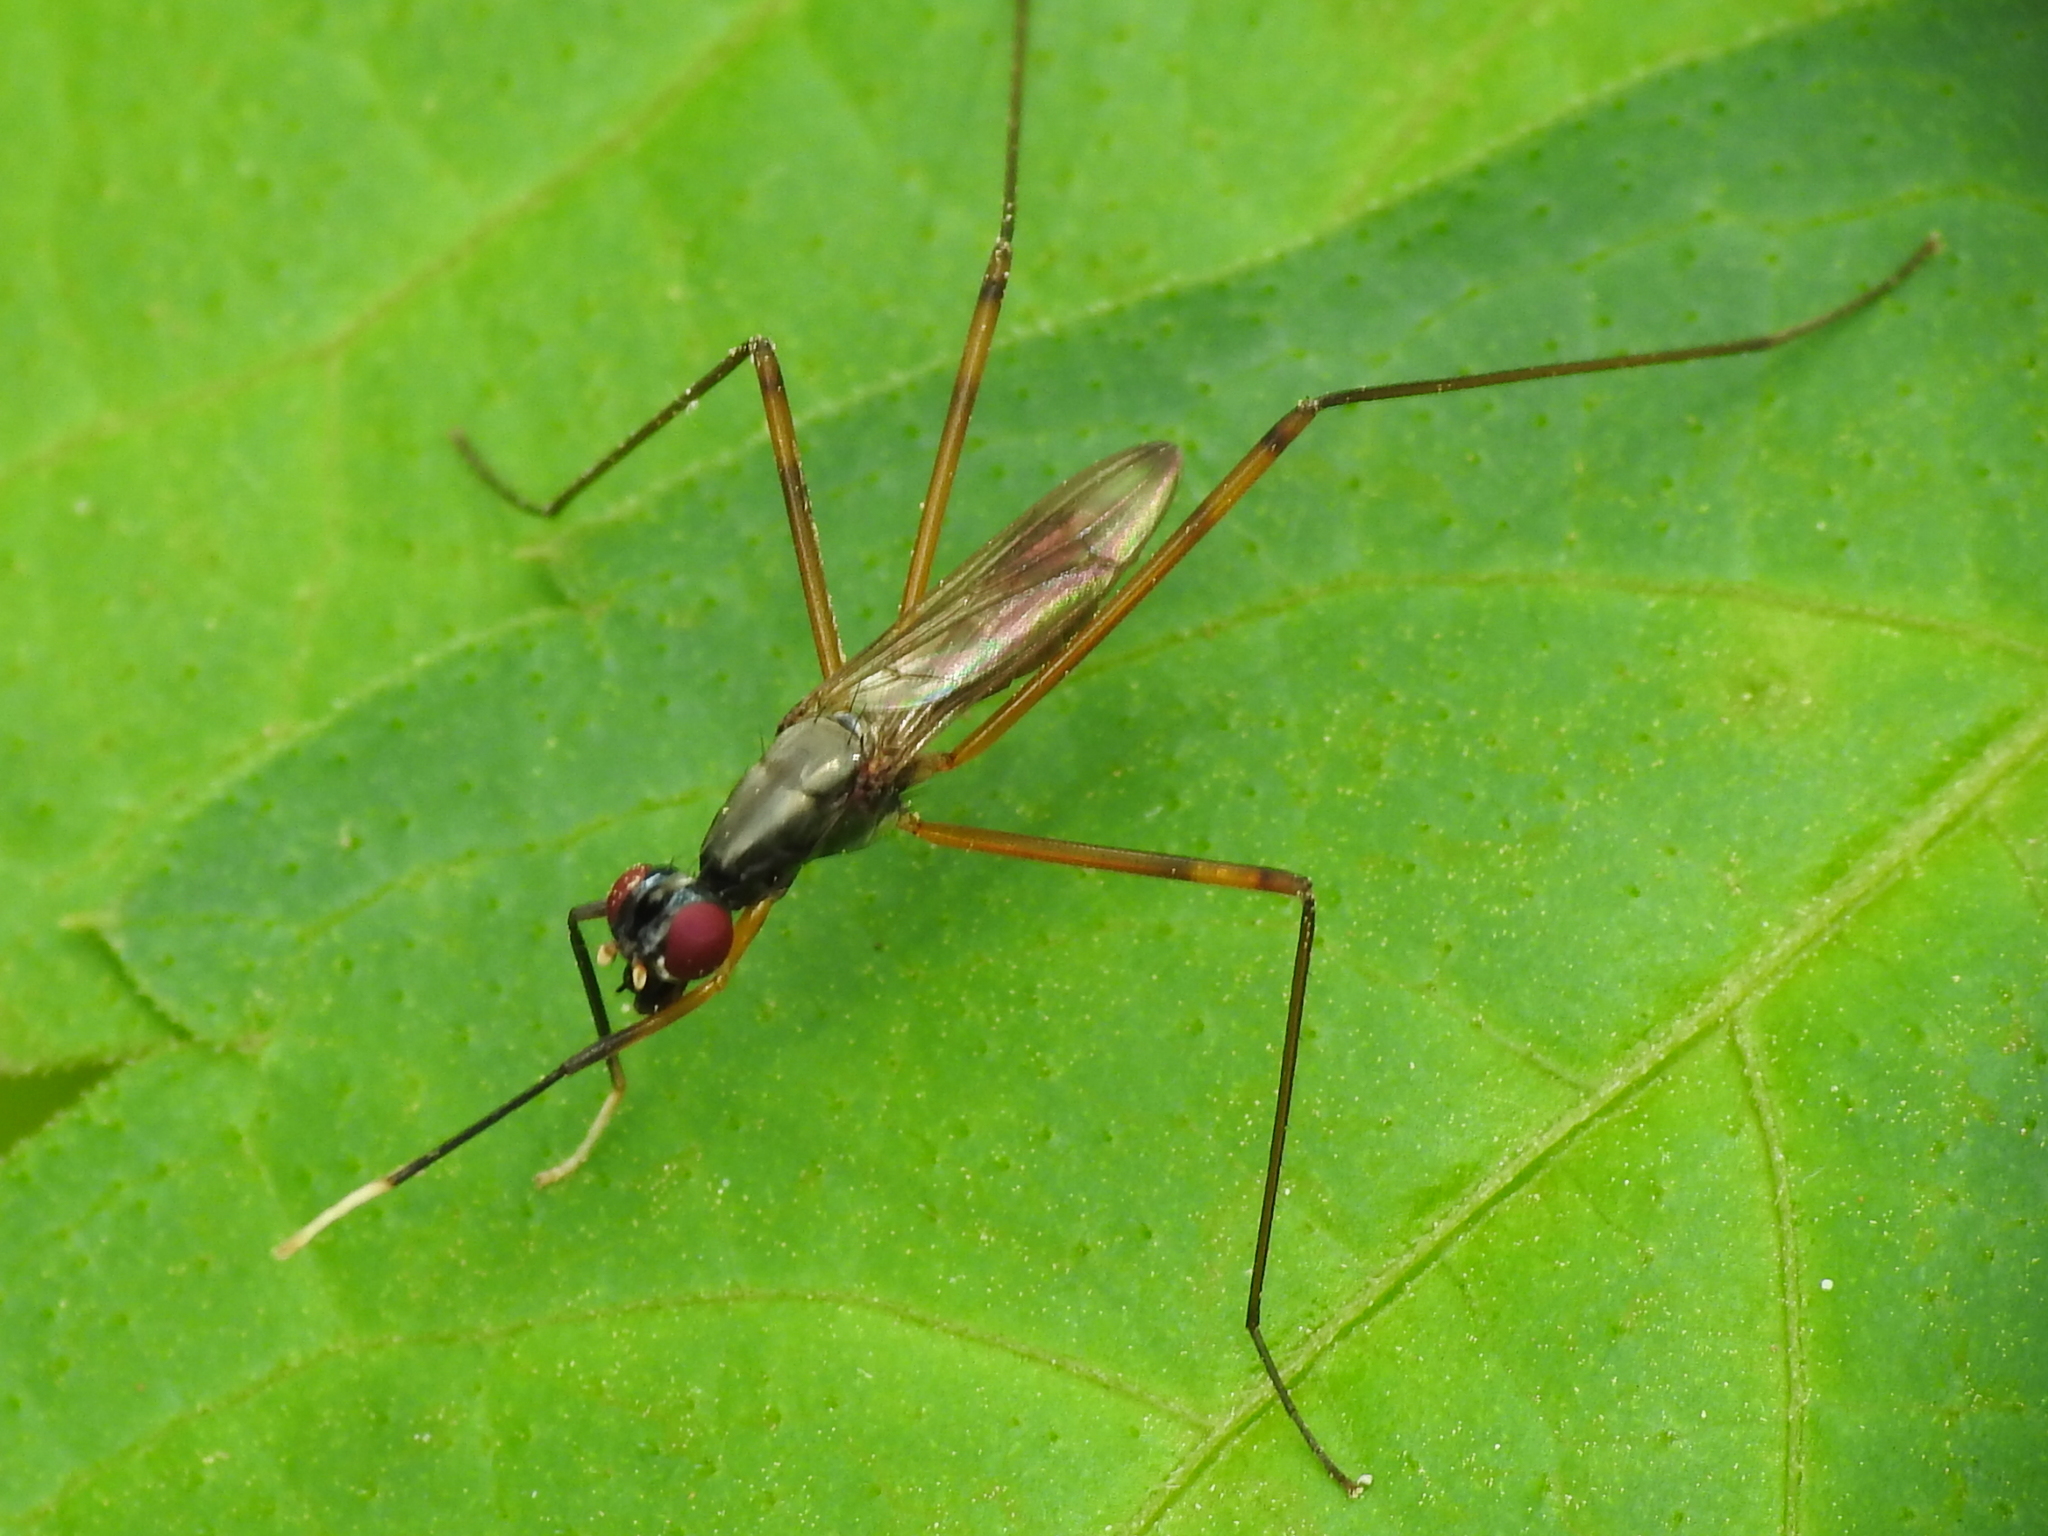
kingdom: Animalia
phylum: Arthropoda
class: Insecta
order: Diptera
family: Micropezidae
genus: Rainieria
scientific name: Rainieria antennaepes
